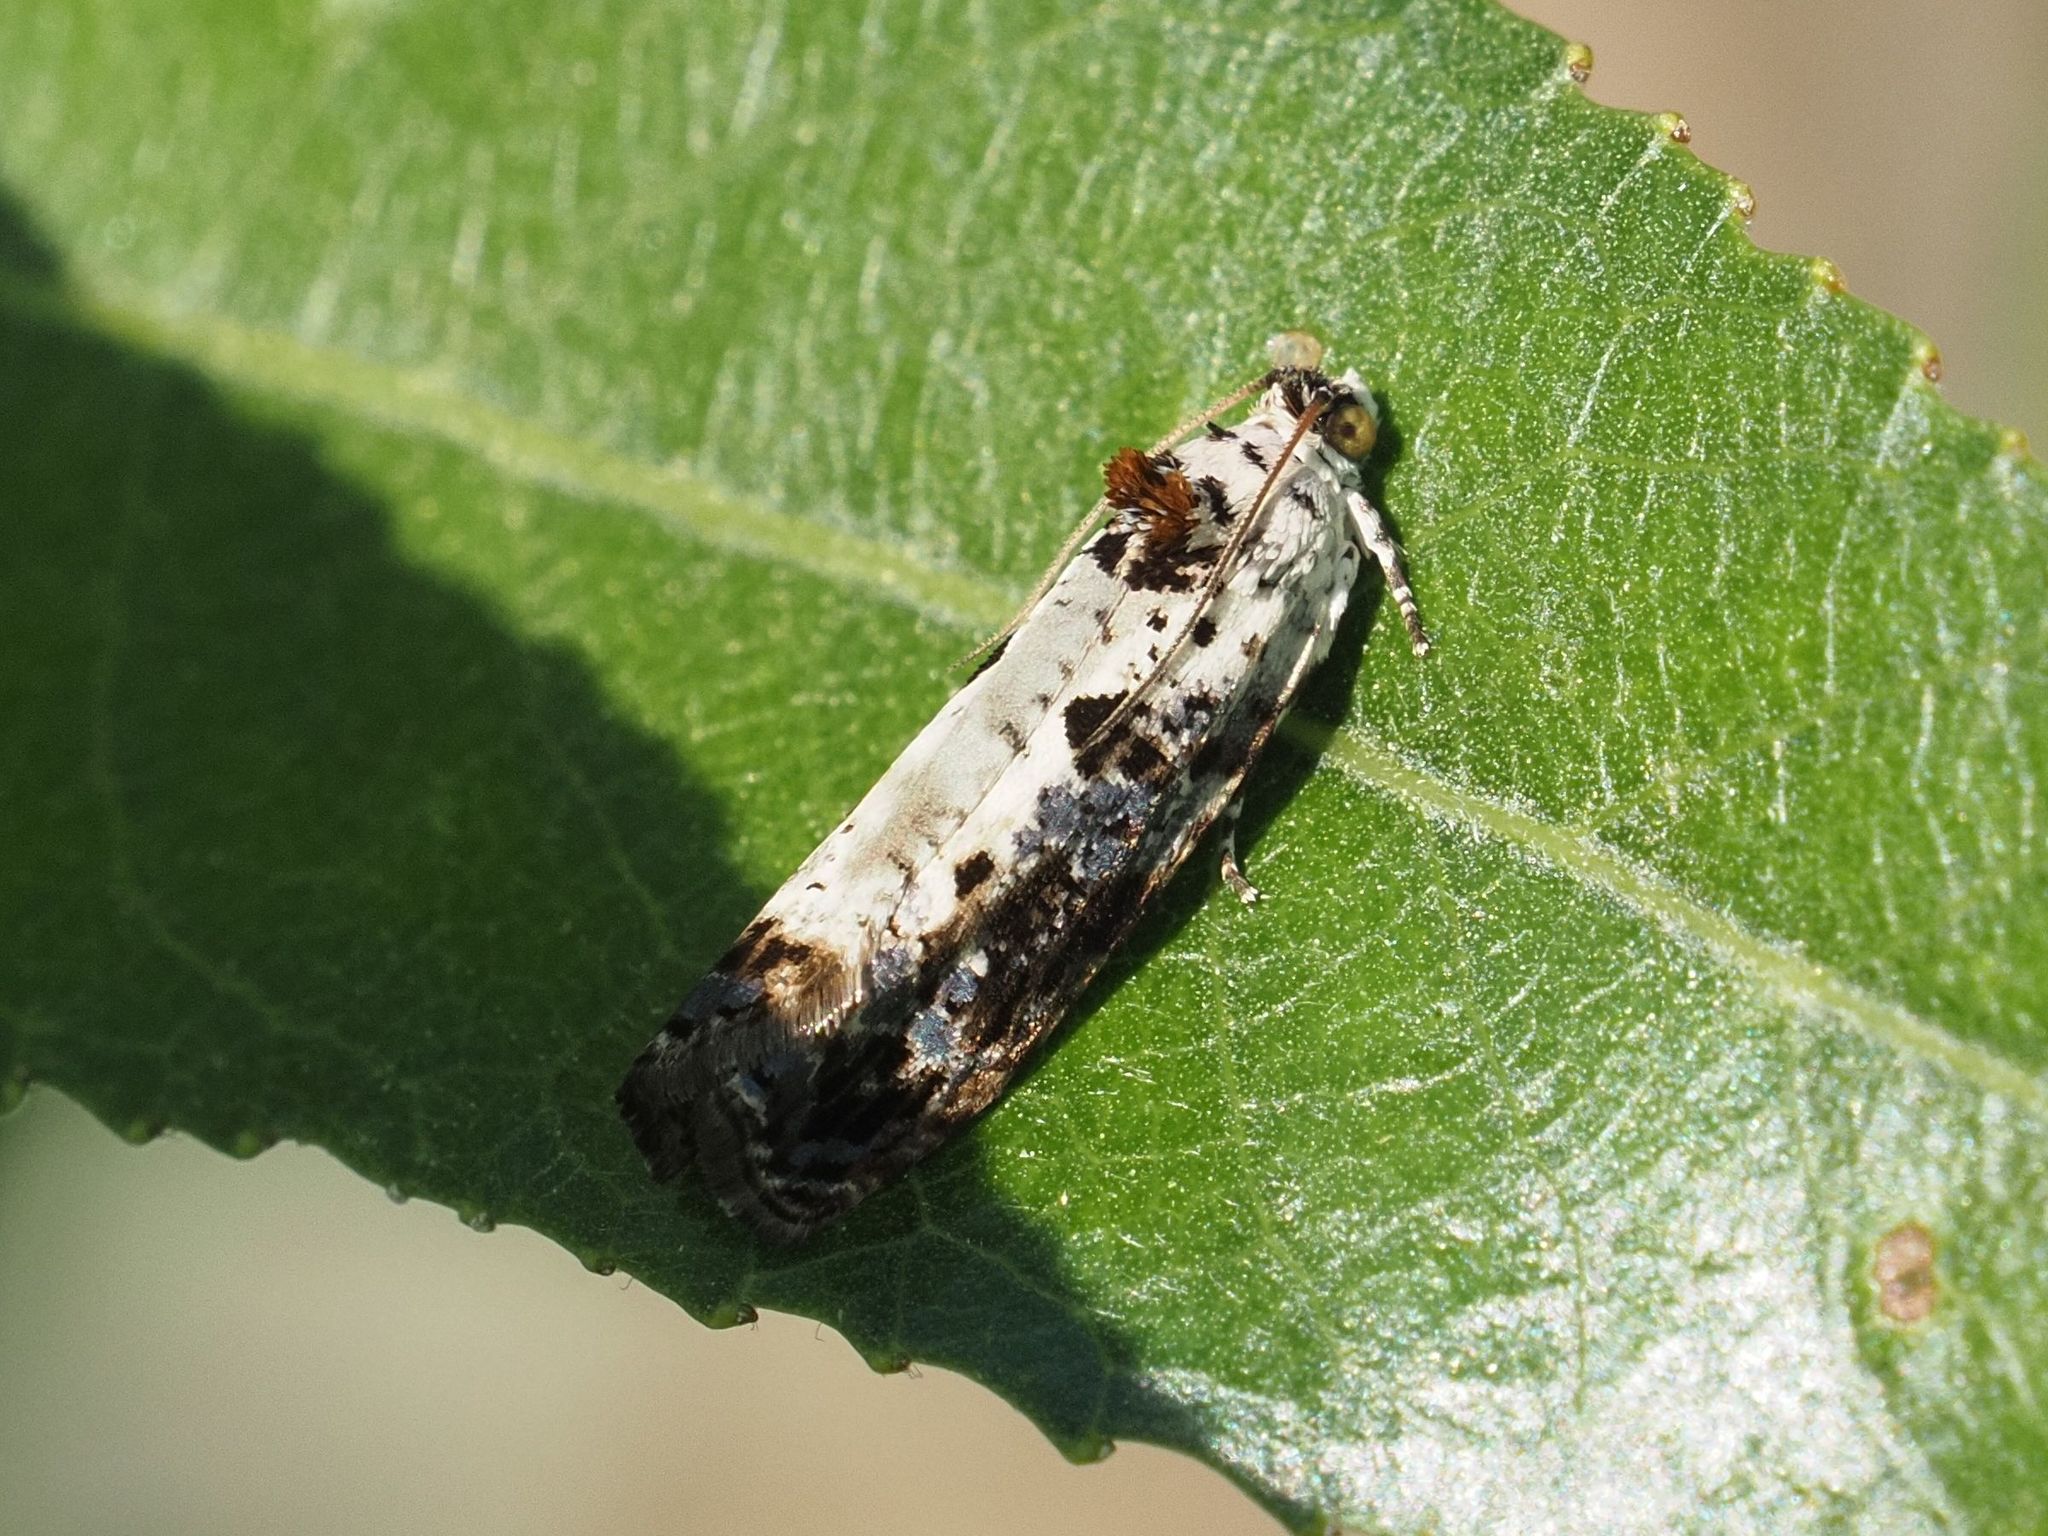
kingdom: Animalia
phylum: Arthropoda
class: Insecta
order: Lepidoptera
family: Tortricidae
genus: Hedya
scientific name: Hedya salicella
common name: Large tortricid moth
